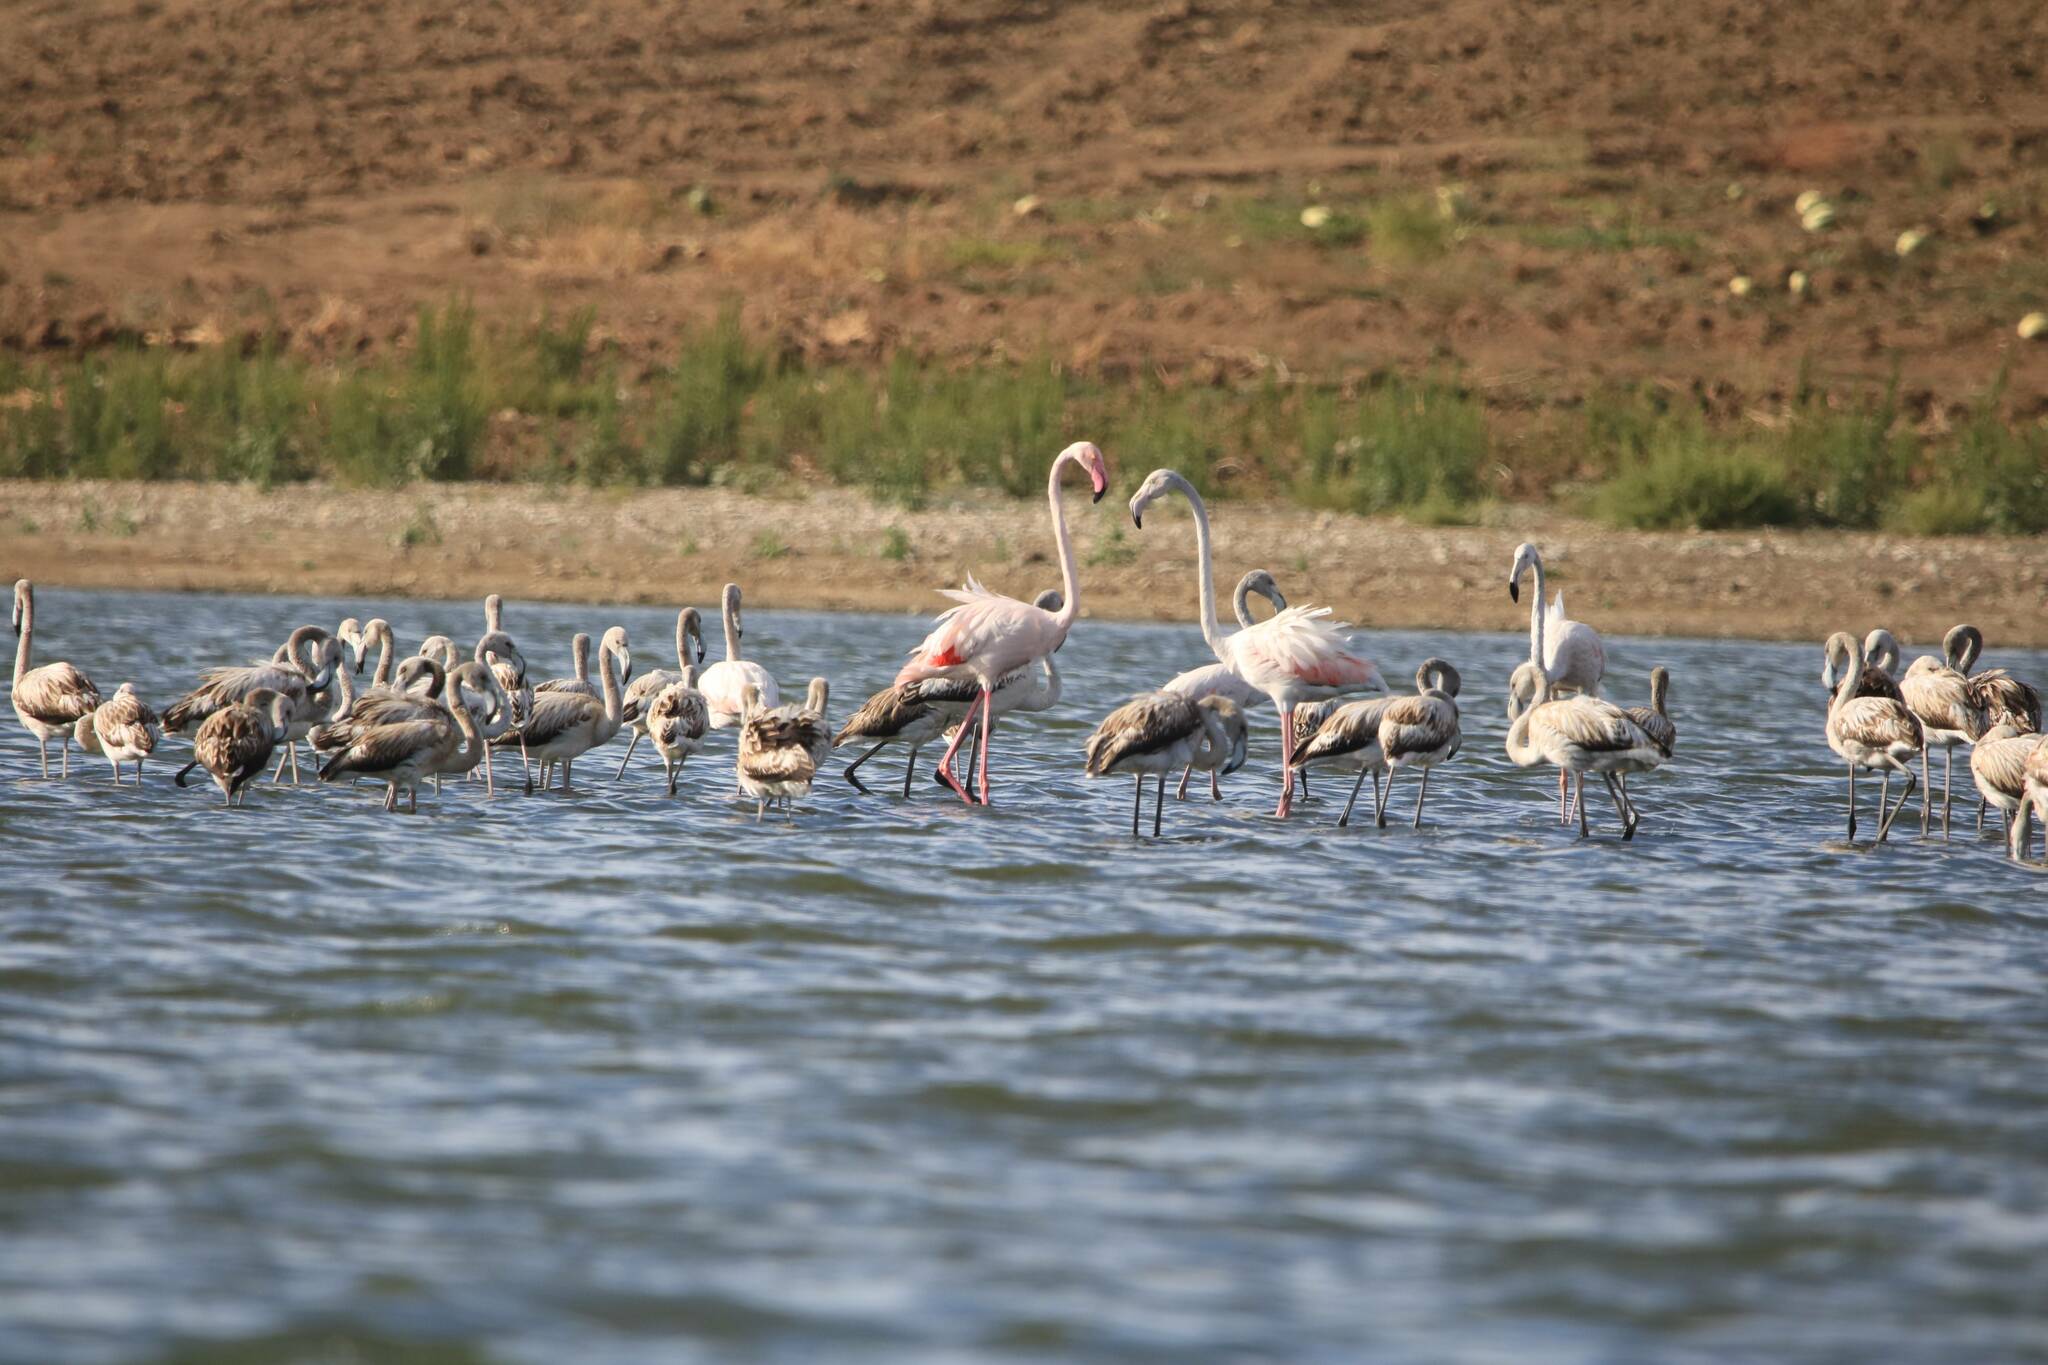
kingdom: Animalia
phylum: Chordata
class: Aves
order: Phoenicopteriformes
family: Phoenicopteridae
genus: Phoenicopterus
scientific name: Phoenicopterus roseus
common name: Greater flamingo
